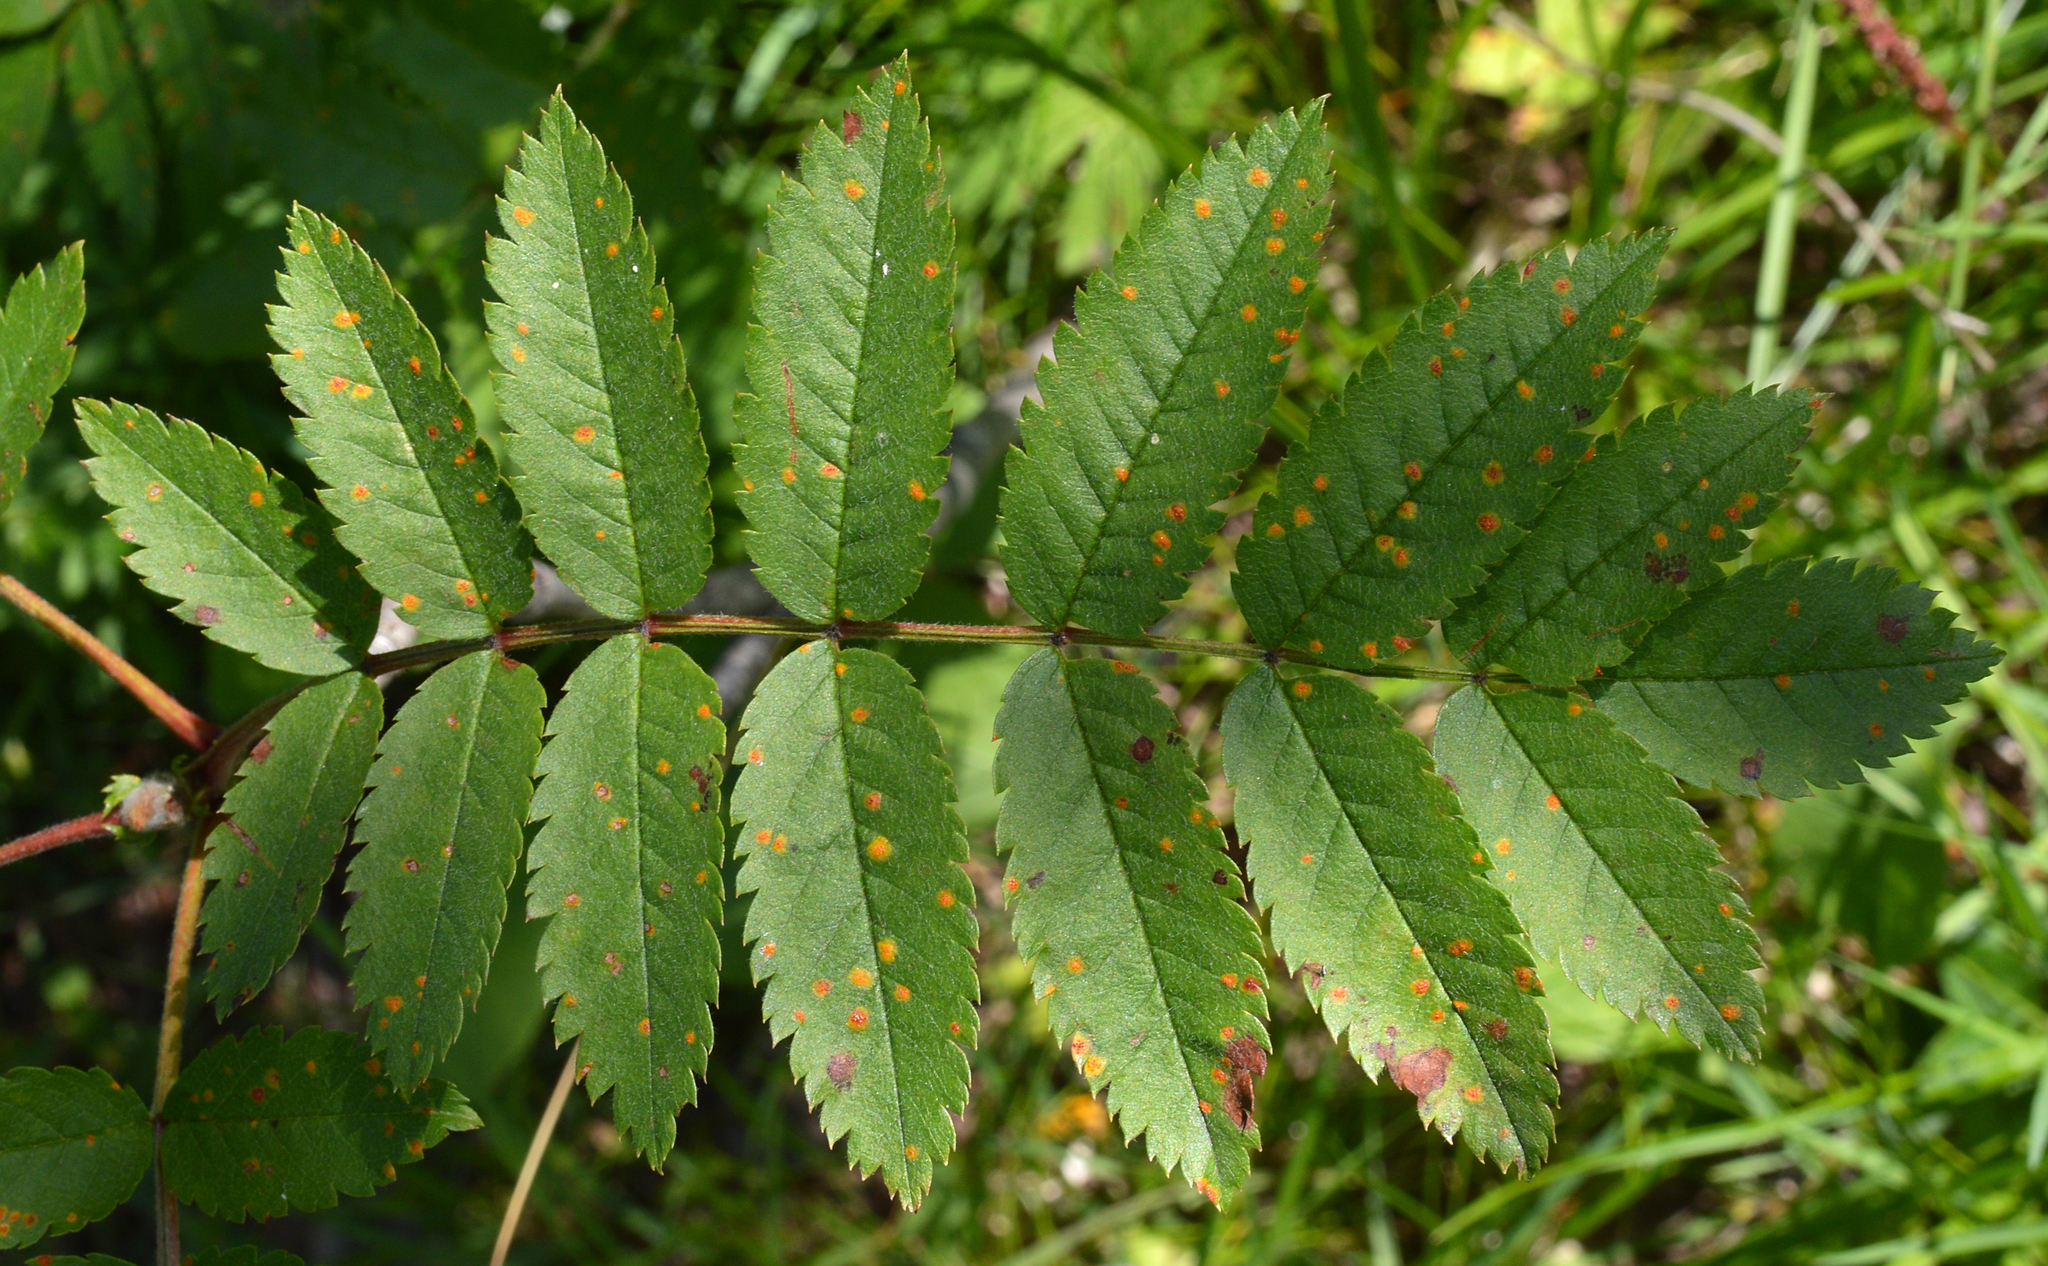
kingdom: Plantae
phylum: Tracheophyta
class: Magnoliopsida
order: Rosales
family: Rosaceae
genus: Sorbus
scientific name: Sorbus aucuparia
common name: Rowan
